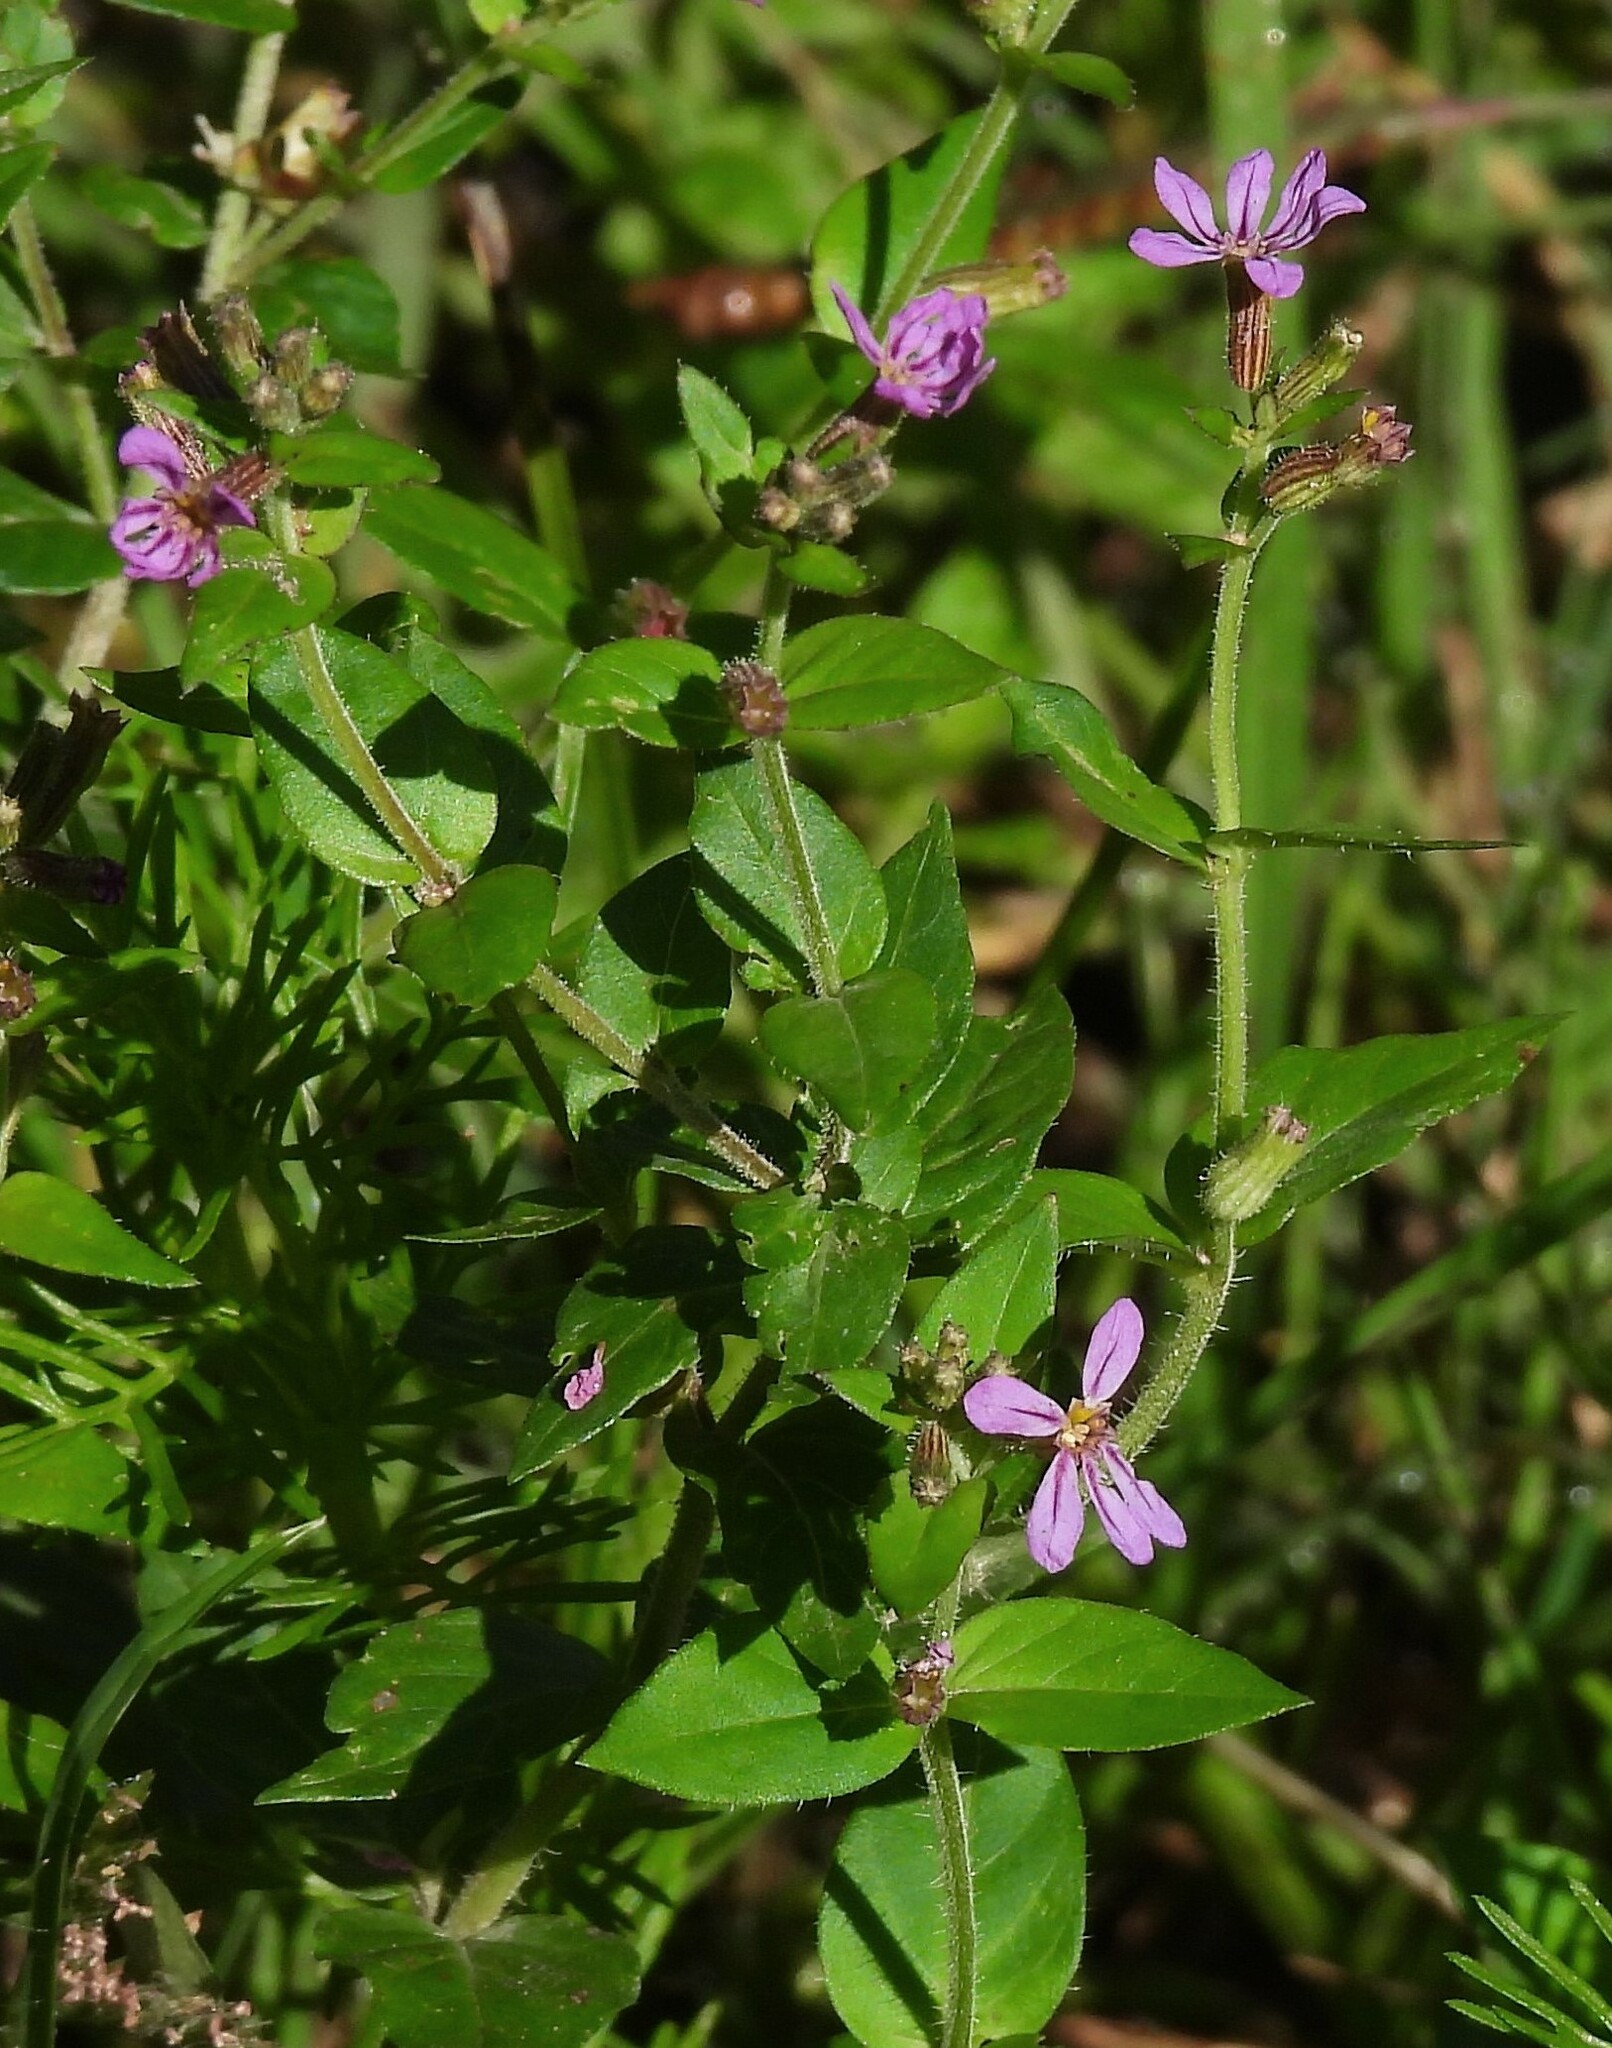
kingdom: Plantae
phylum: Tracheophyta
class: Magnoliopsida
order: Myrtales
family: Lythraceae
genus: Cuphea
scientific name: Cuphea glutinosa
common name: Sticky waxweed
